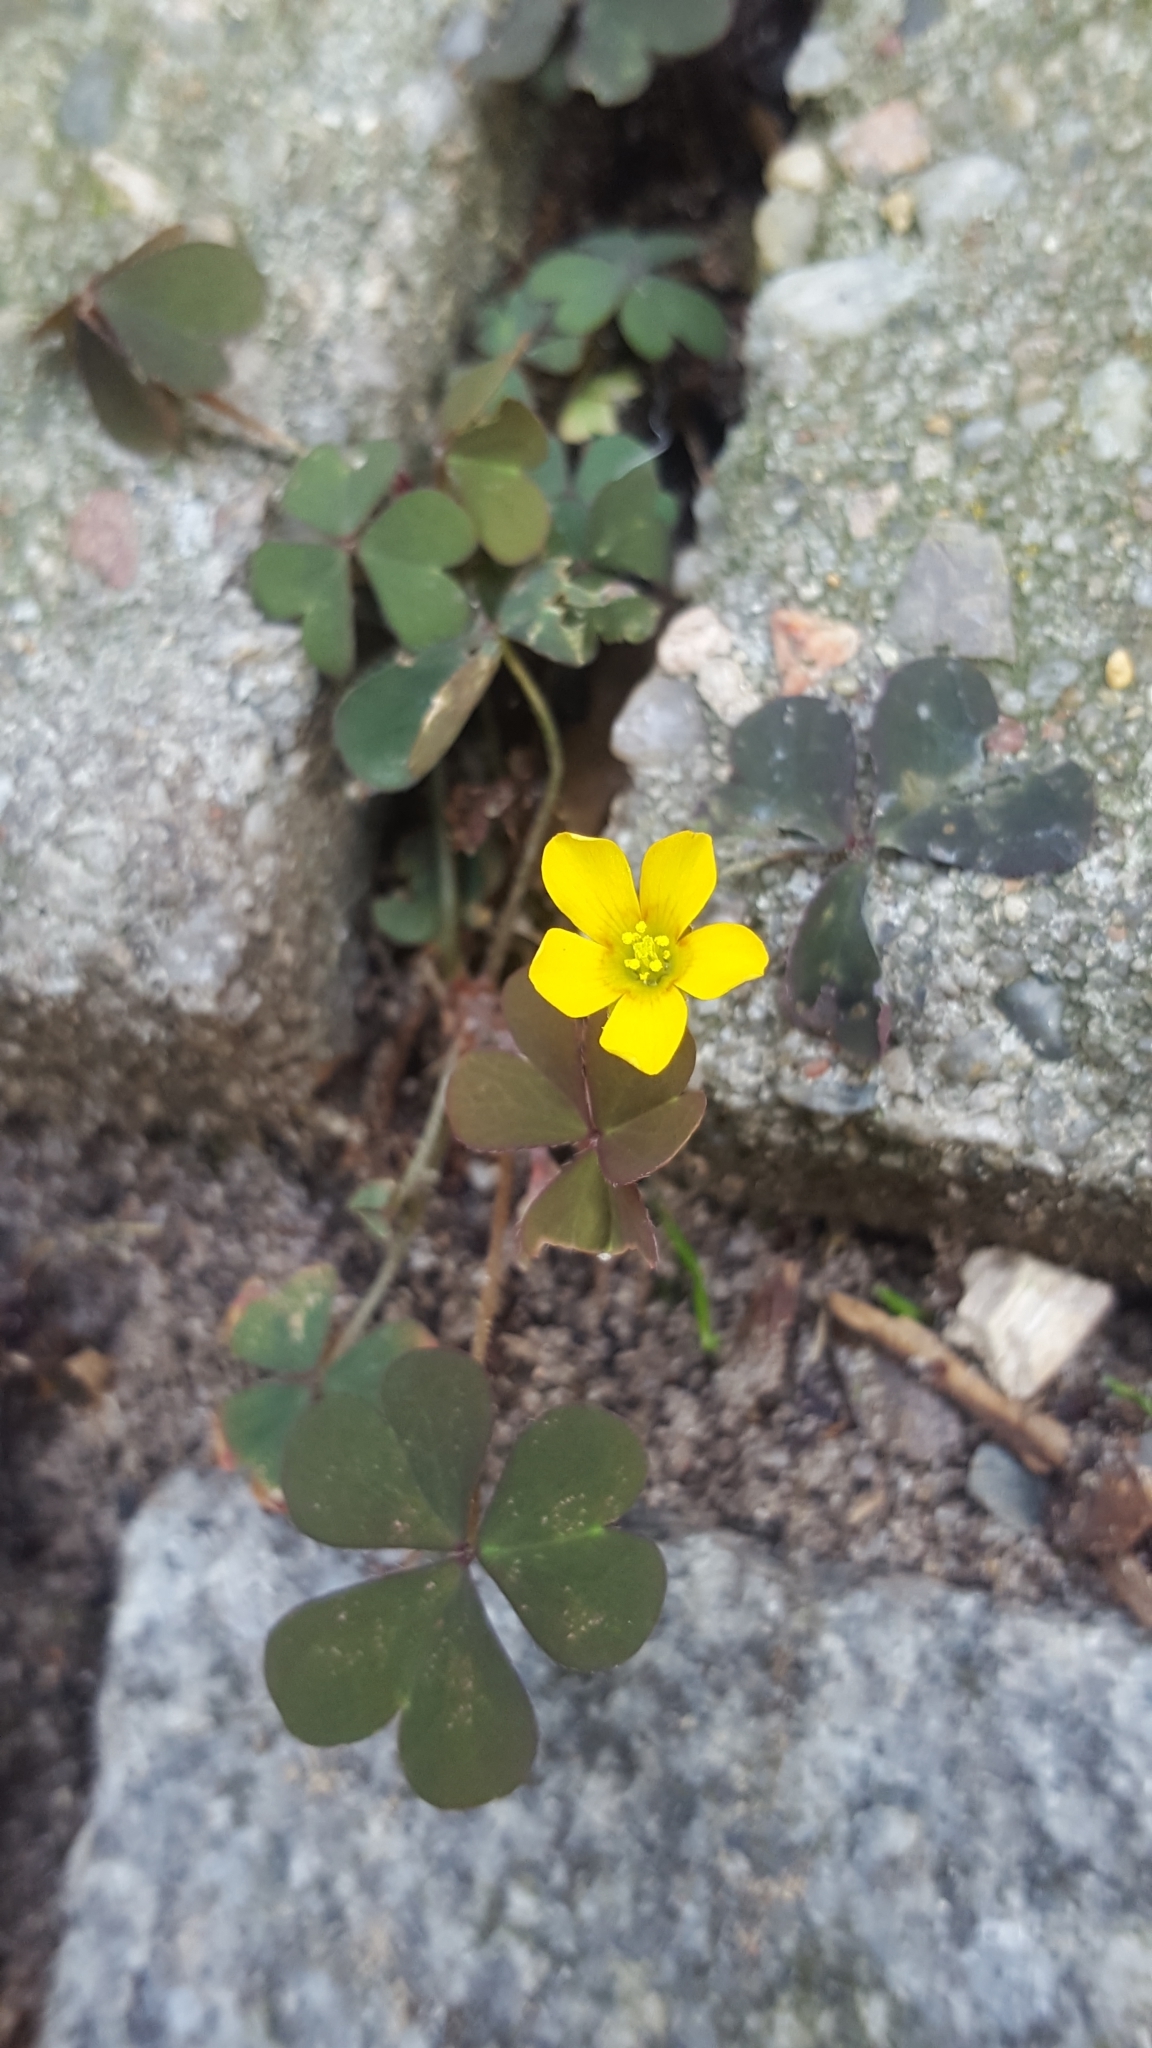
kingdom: Plantae
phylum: Tracheophyta
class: Magnoliopsida
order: Oxalidales
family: Oxalidaceae
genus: Oxalis
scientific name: Oxalis corniculata
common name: Procumbent yellow-sorrel
